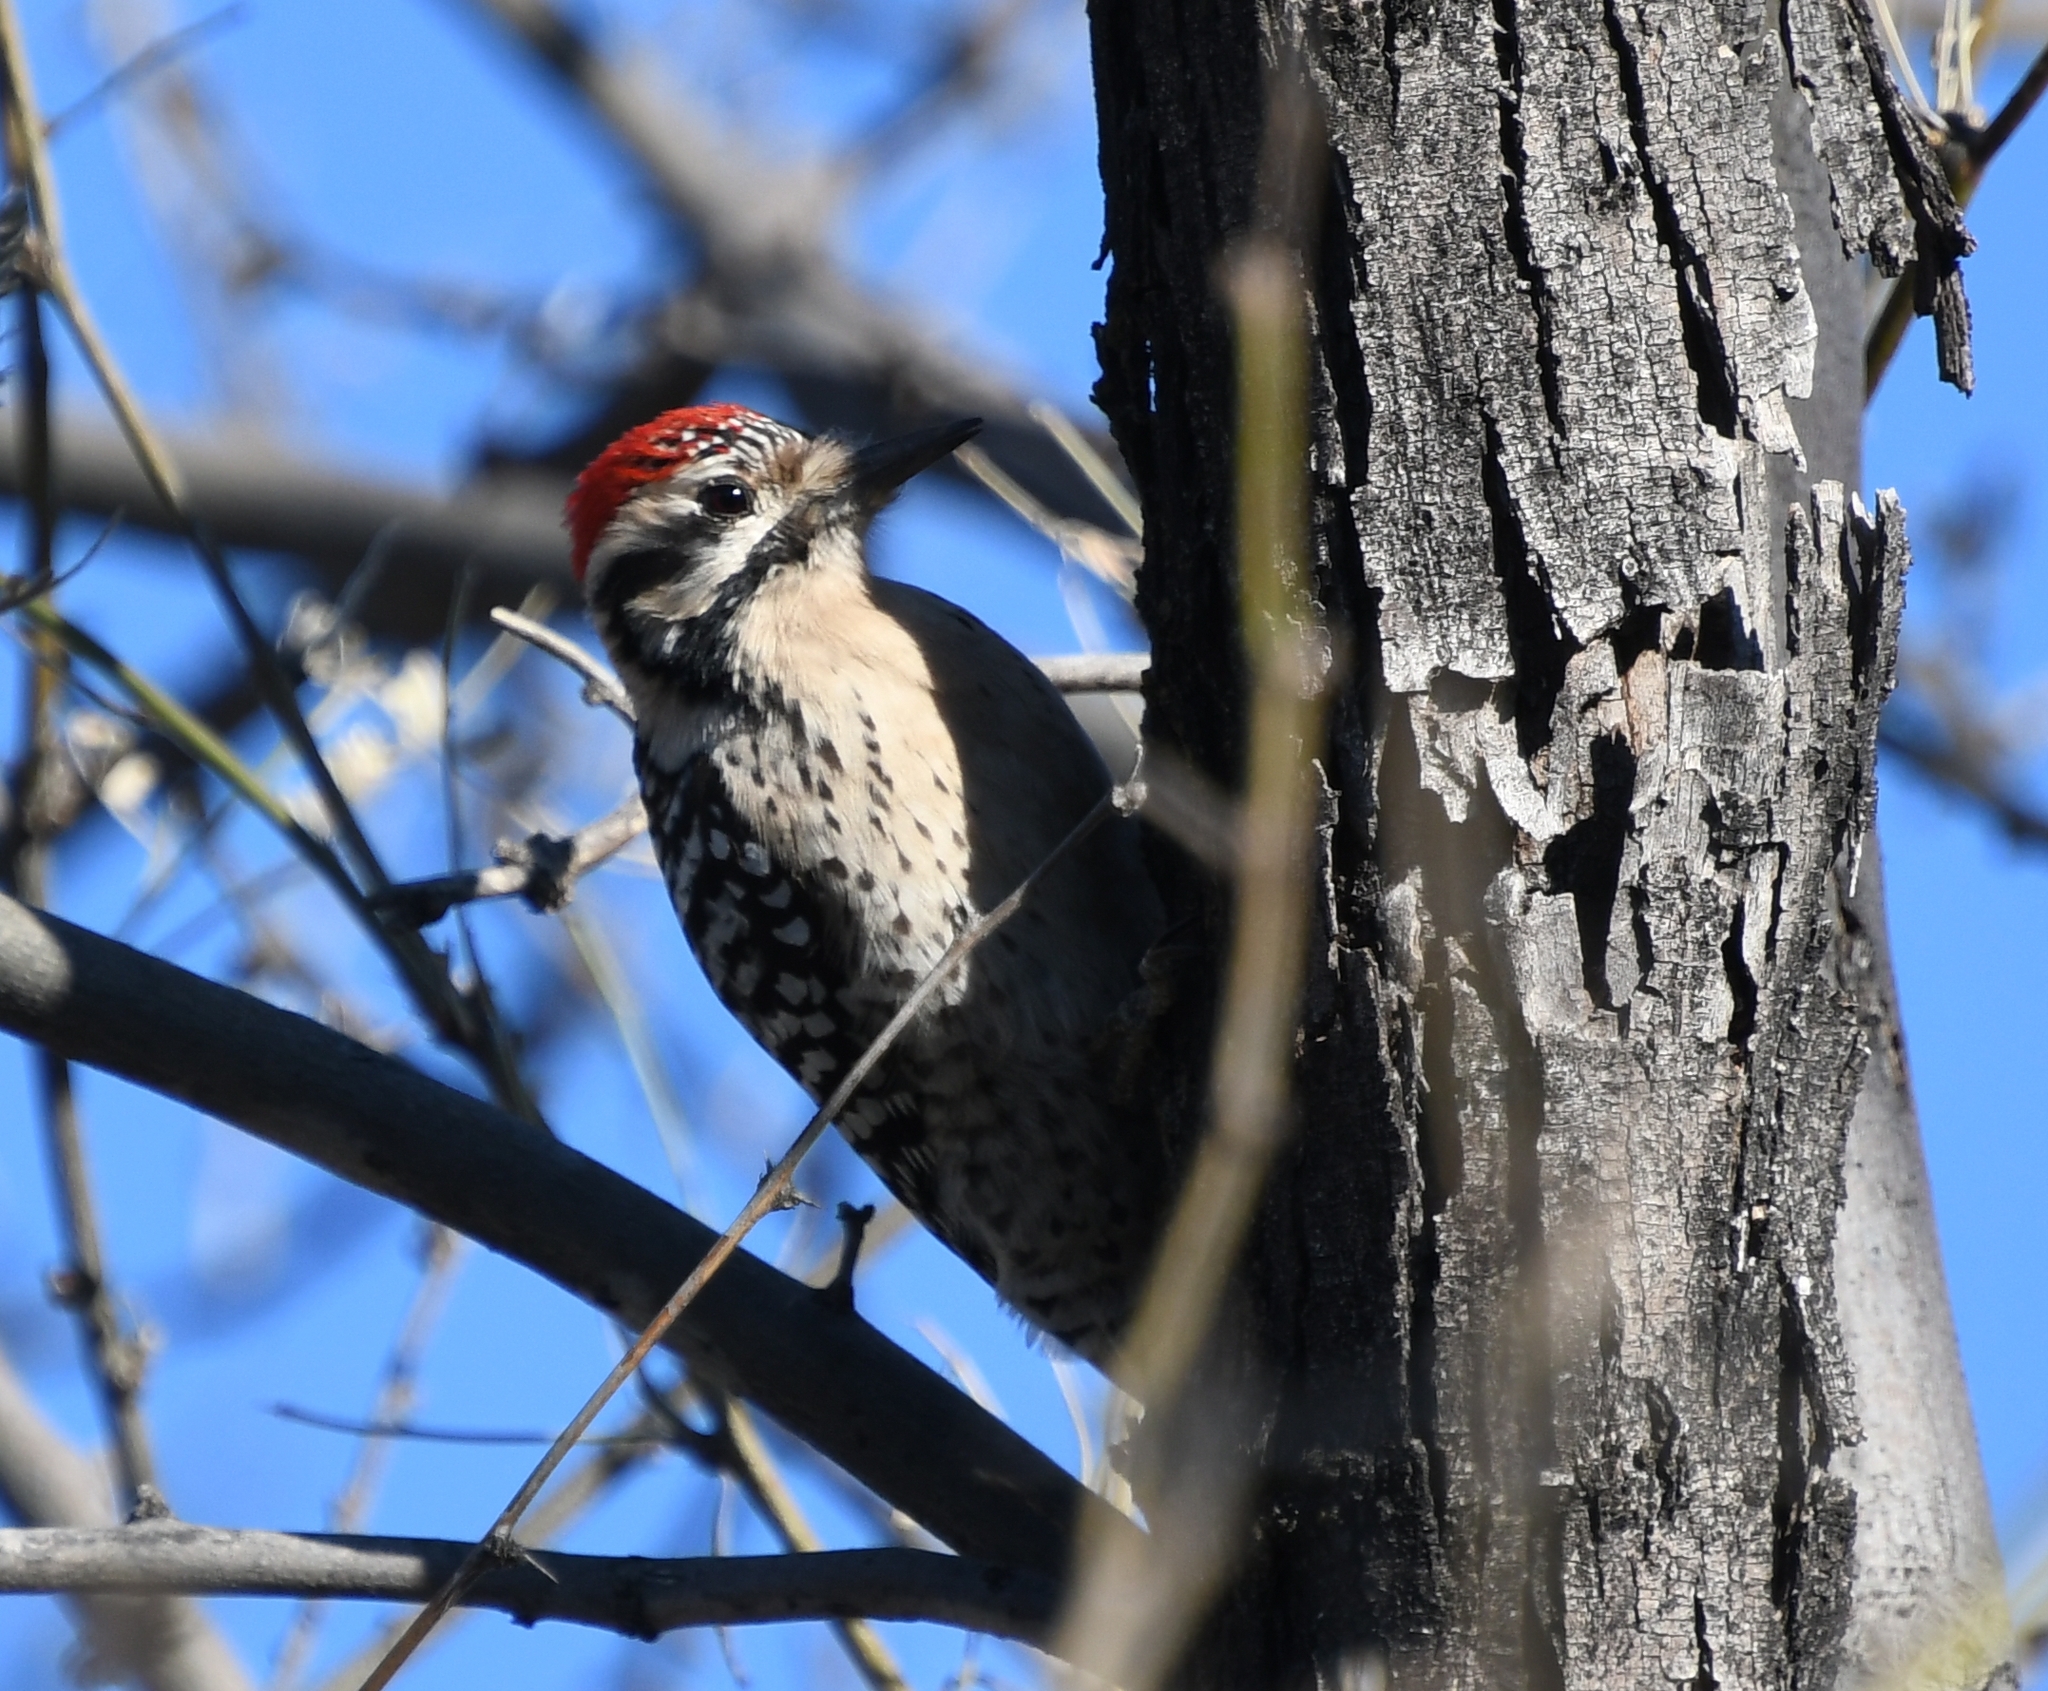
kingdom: Animalia
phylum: Chordata
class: Aves
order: Piciformes
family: Picidae
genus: Dryobates
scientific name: Dryobates scalaris
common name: Ladder-backed woodpecker
